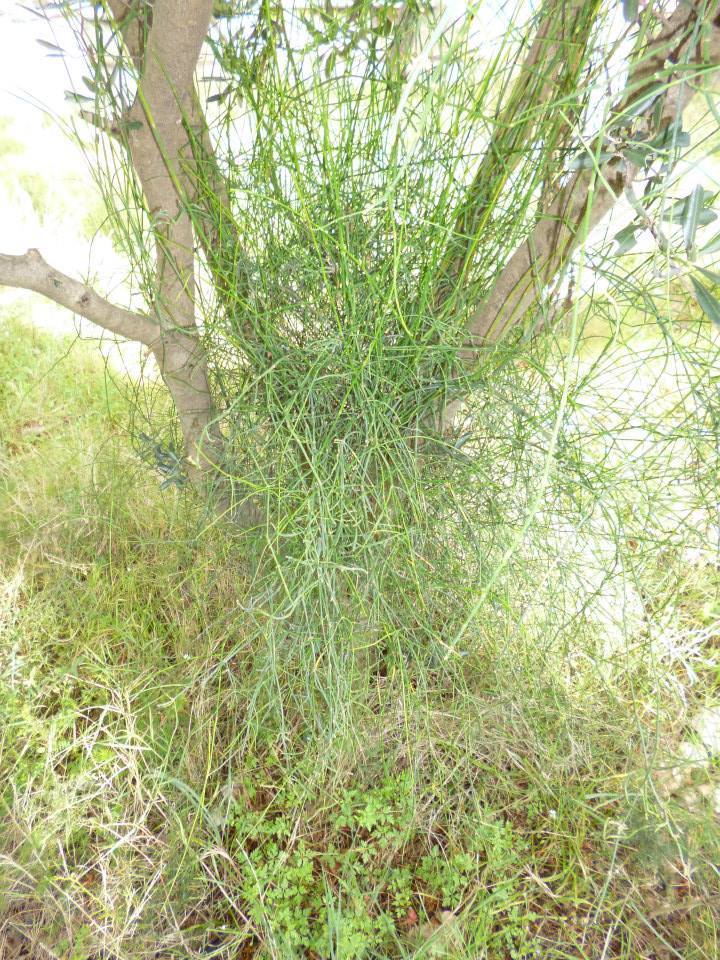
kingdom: Plantae
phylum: Tracheophyta
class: Gnetopsida
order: Ephedrales
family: Ephedraceae
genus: Ephedra
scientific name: Ephedra foeminea
